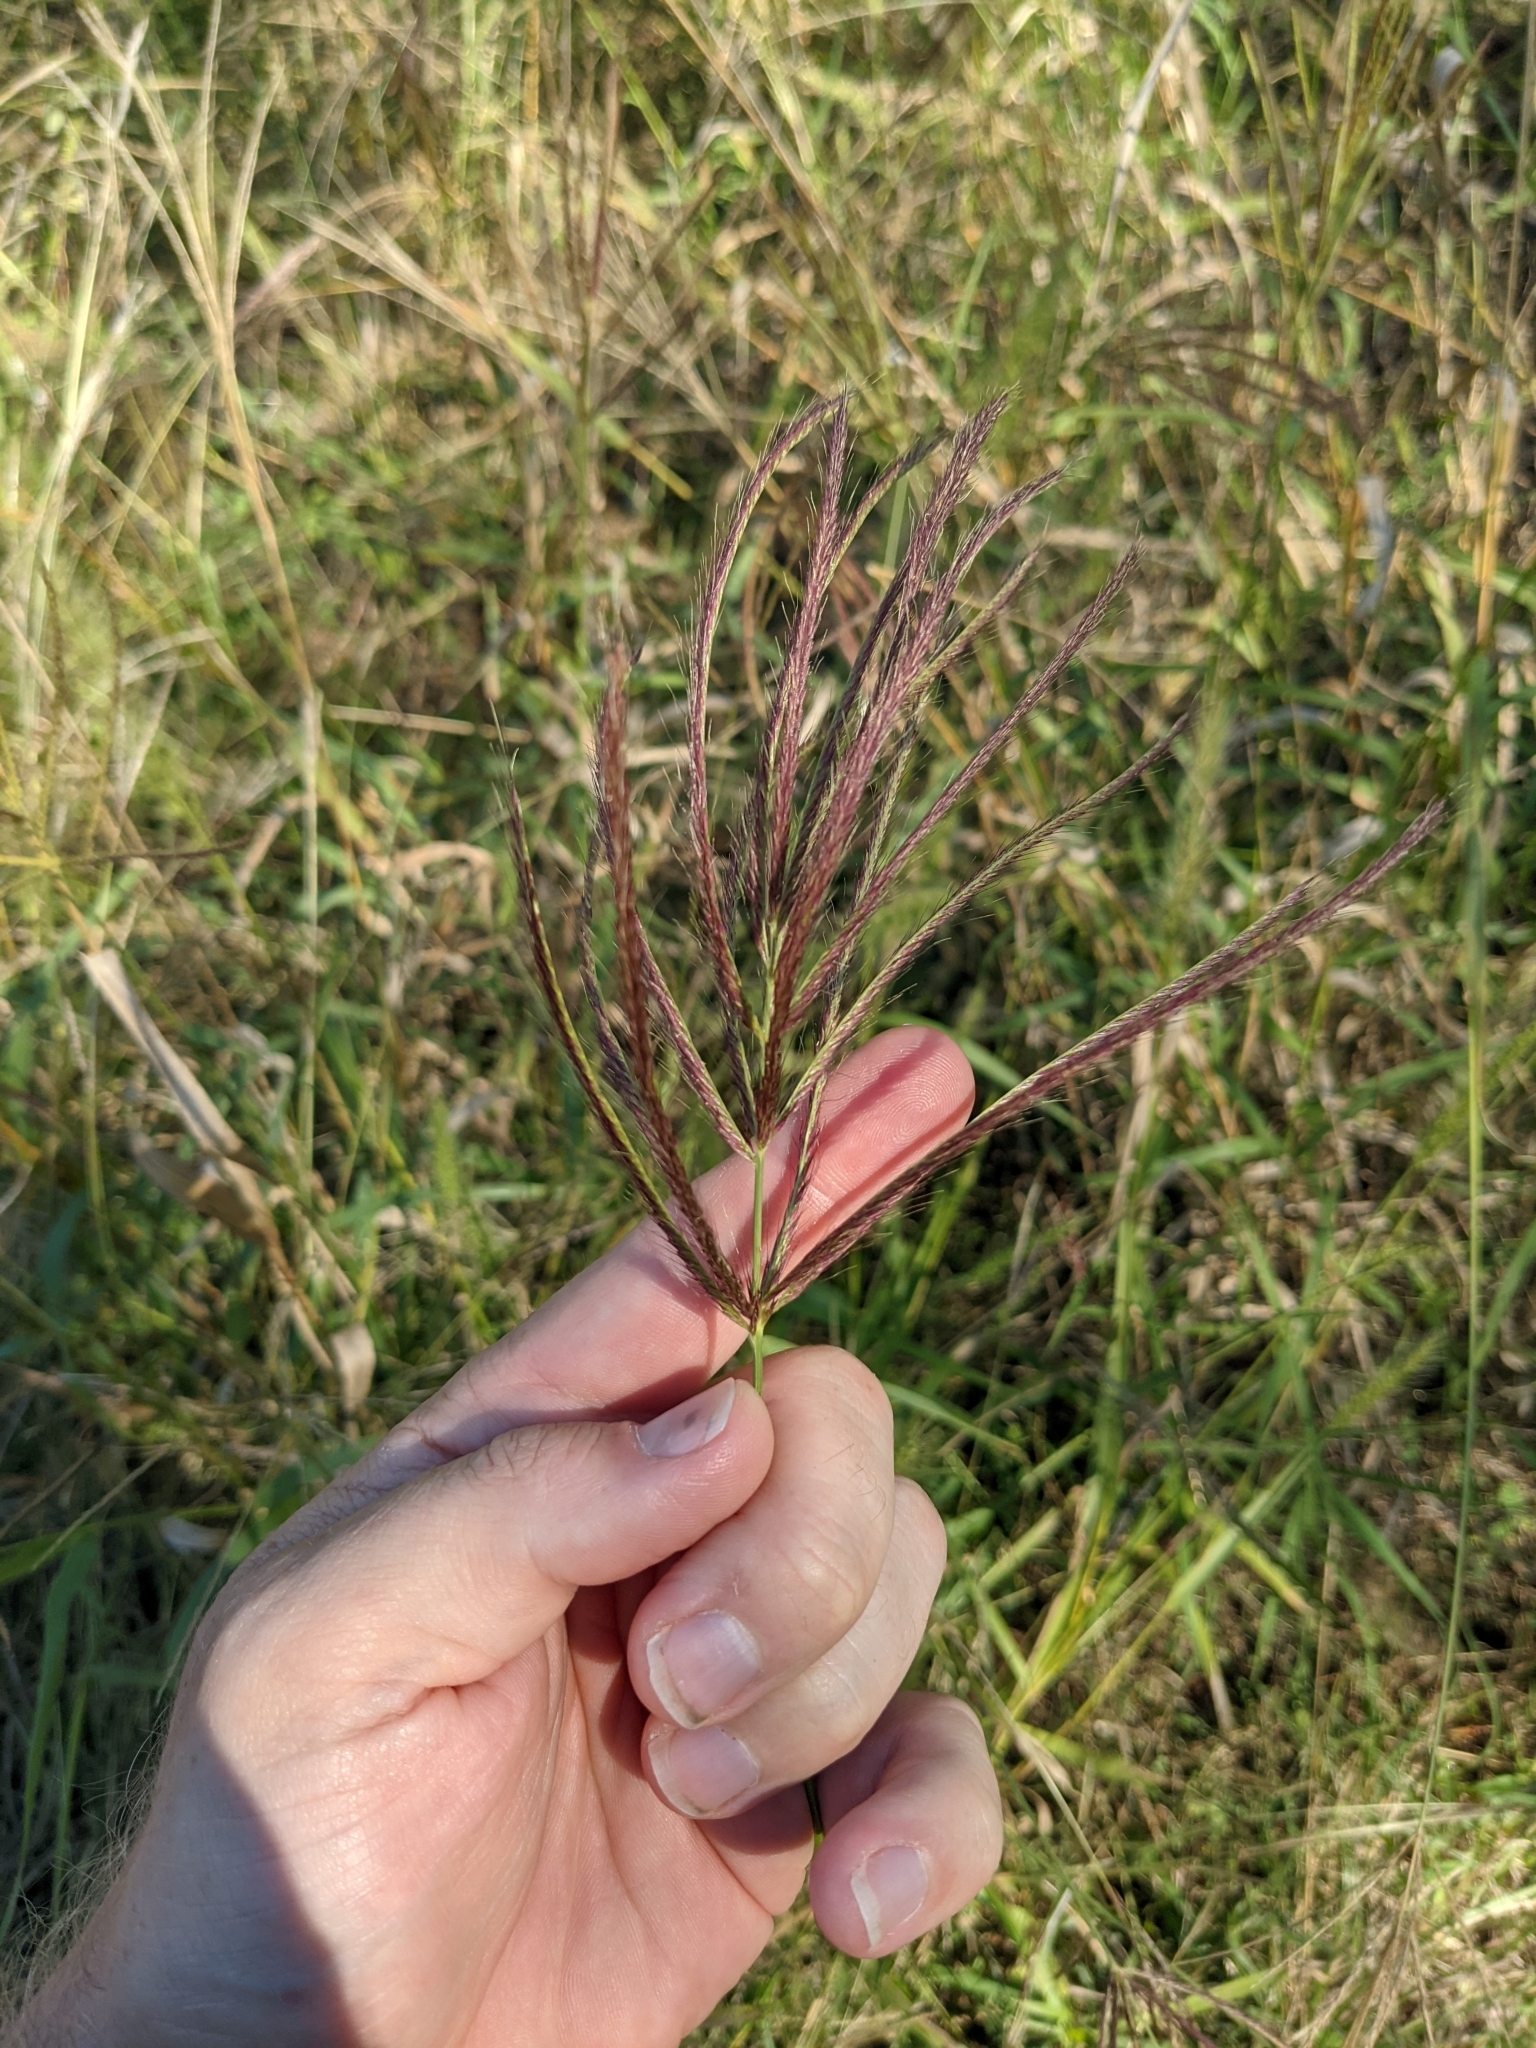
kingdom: Plantae
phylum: Tracheophyta
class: Liliopsida
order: Poales
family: Poaceae
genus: Leptochloa
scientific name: Leptochloa pluriflora
